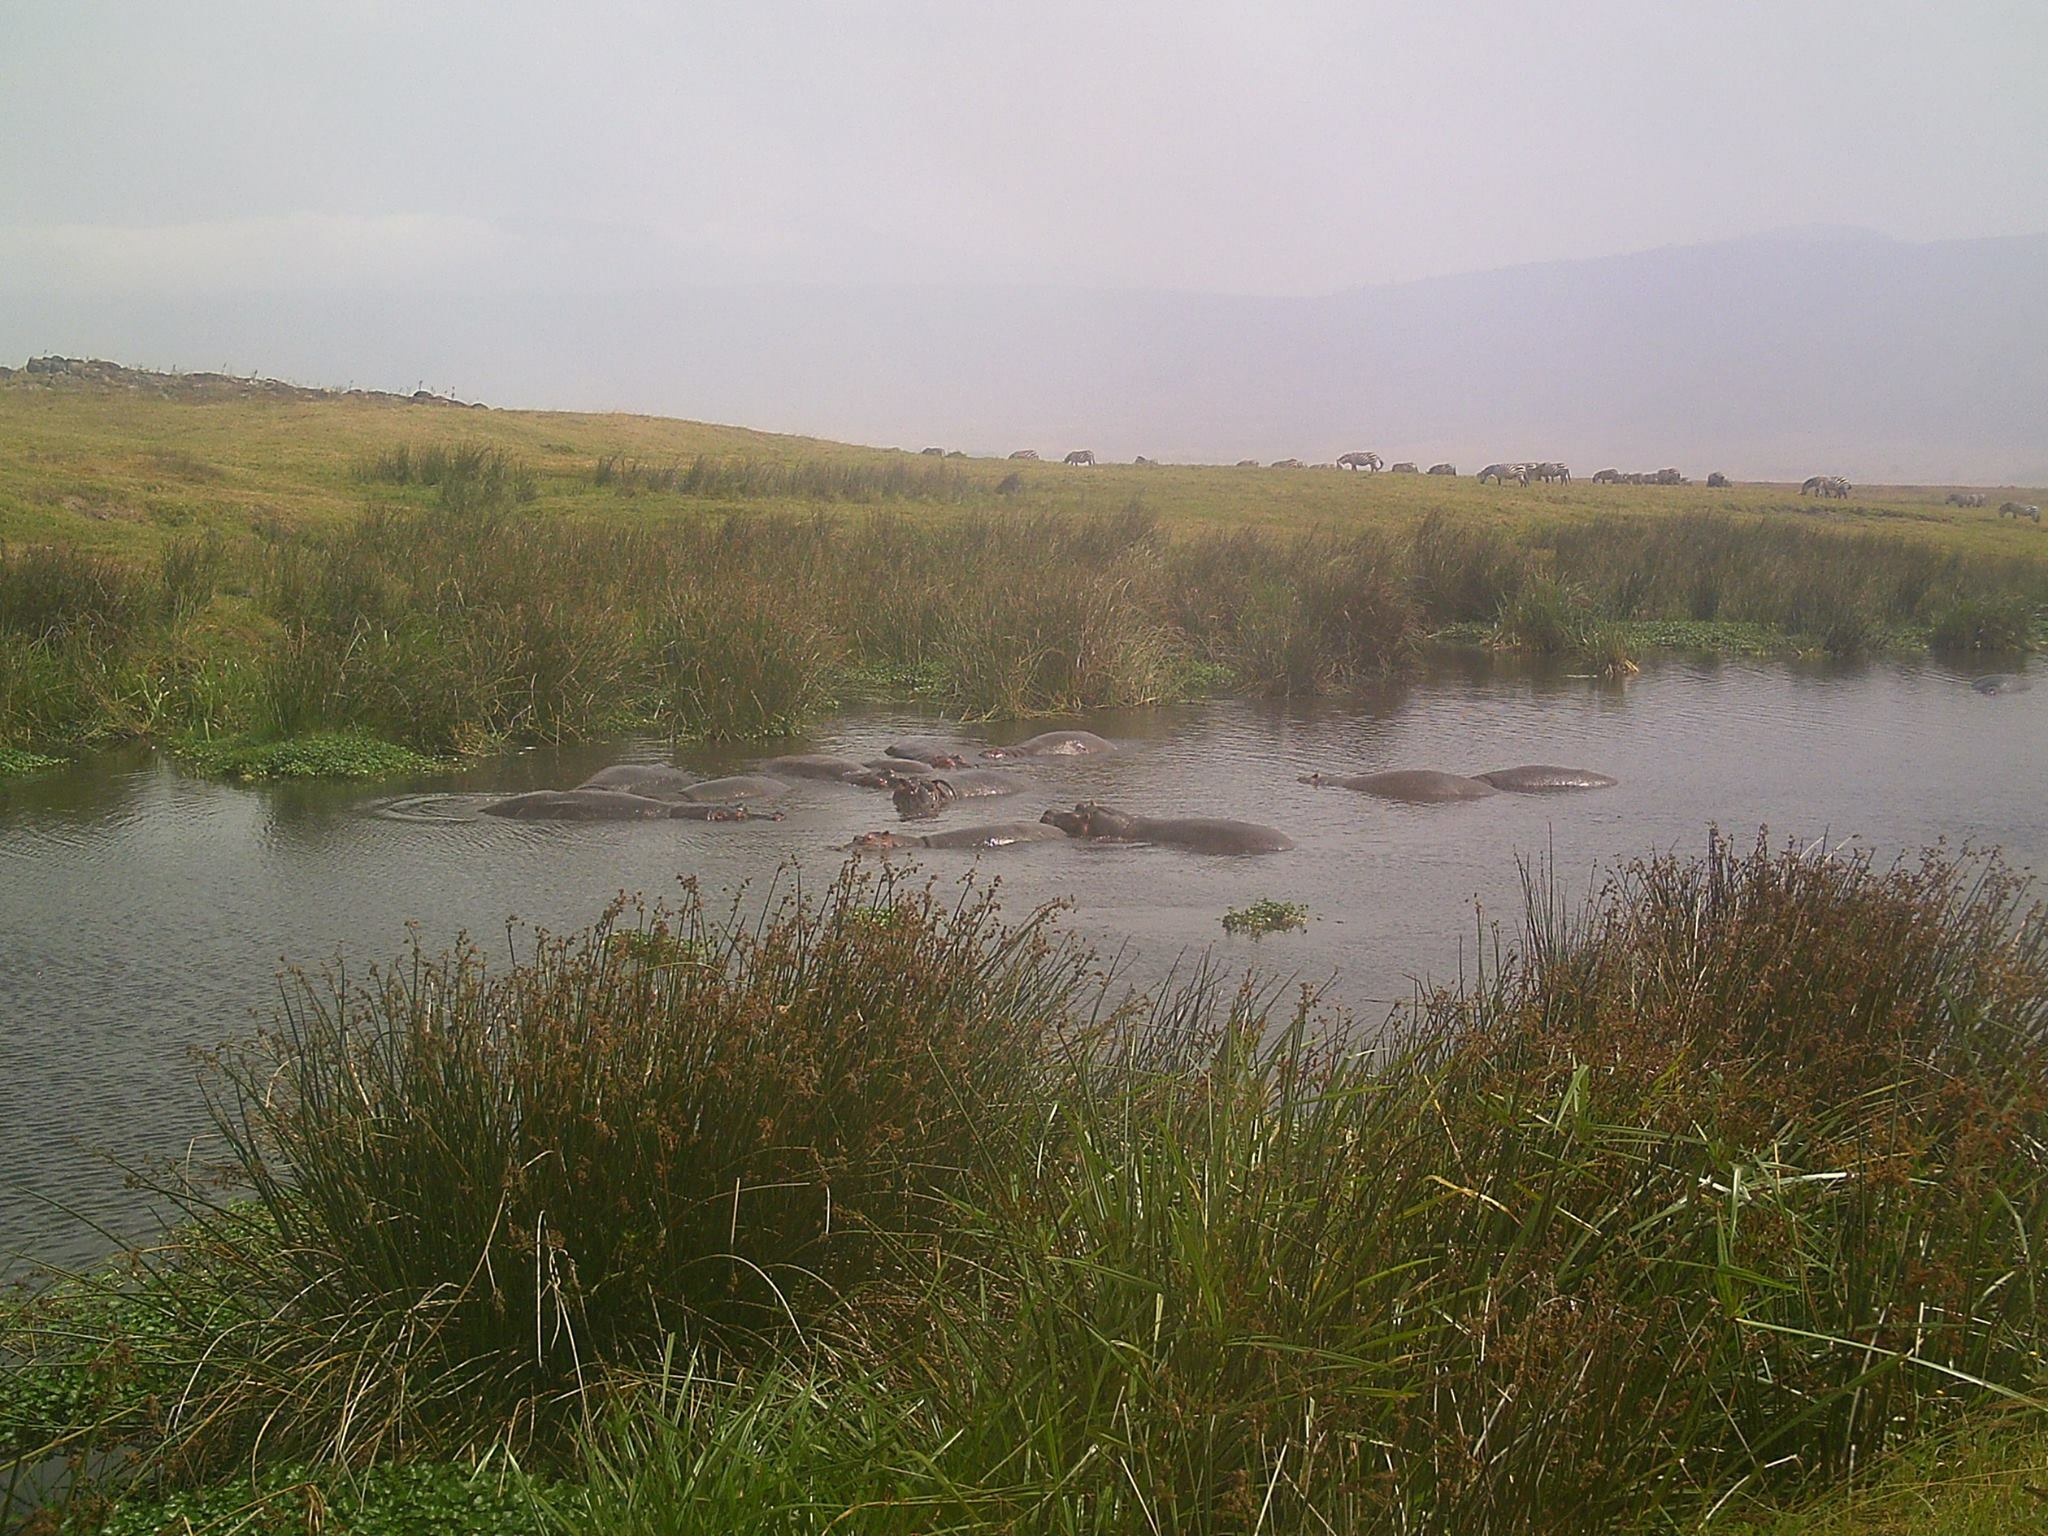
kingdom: Animalia
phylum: Chordata
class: Mammalia
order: Artiodactyla
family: Hippopotamidae
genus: Hippopotamus
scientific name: Hippopotamus amphibius
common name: Common hippopotamus
